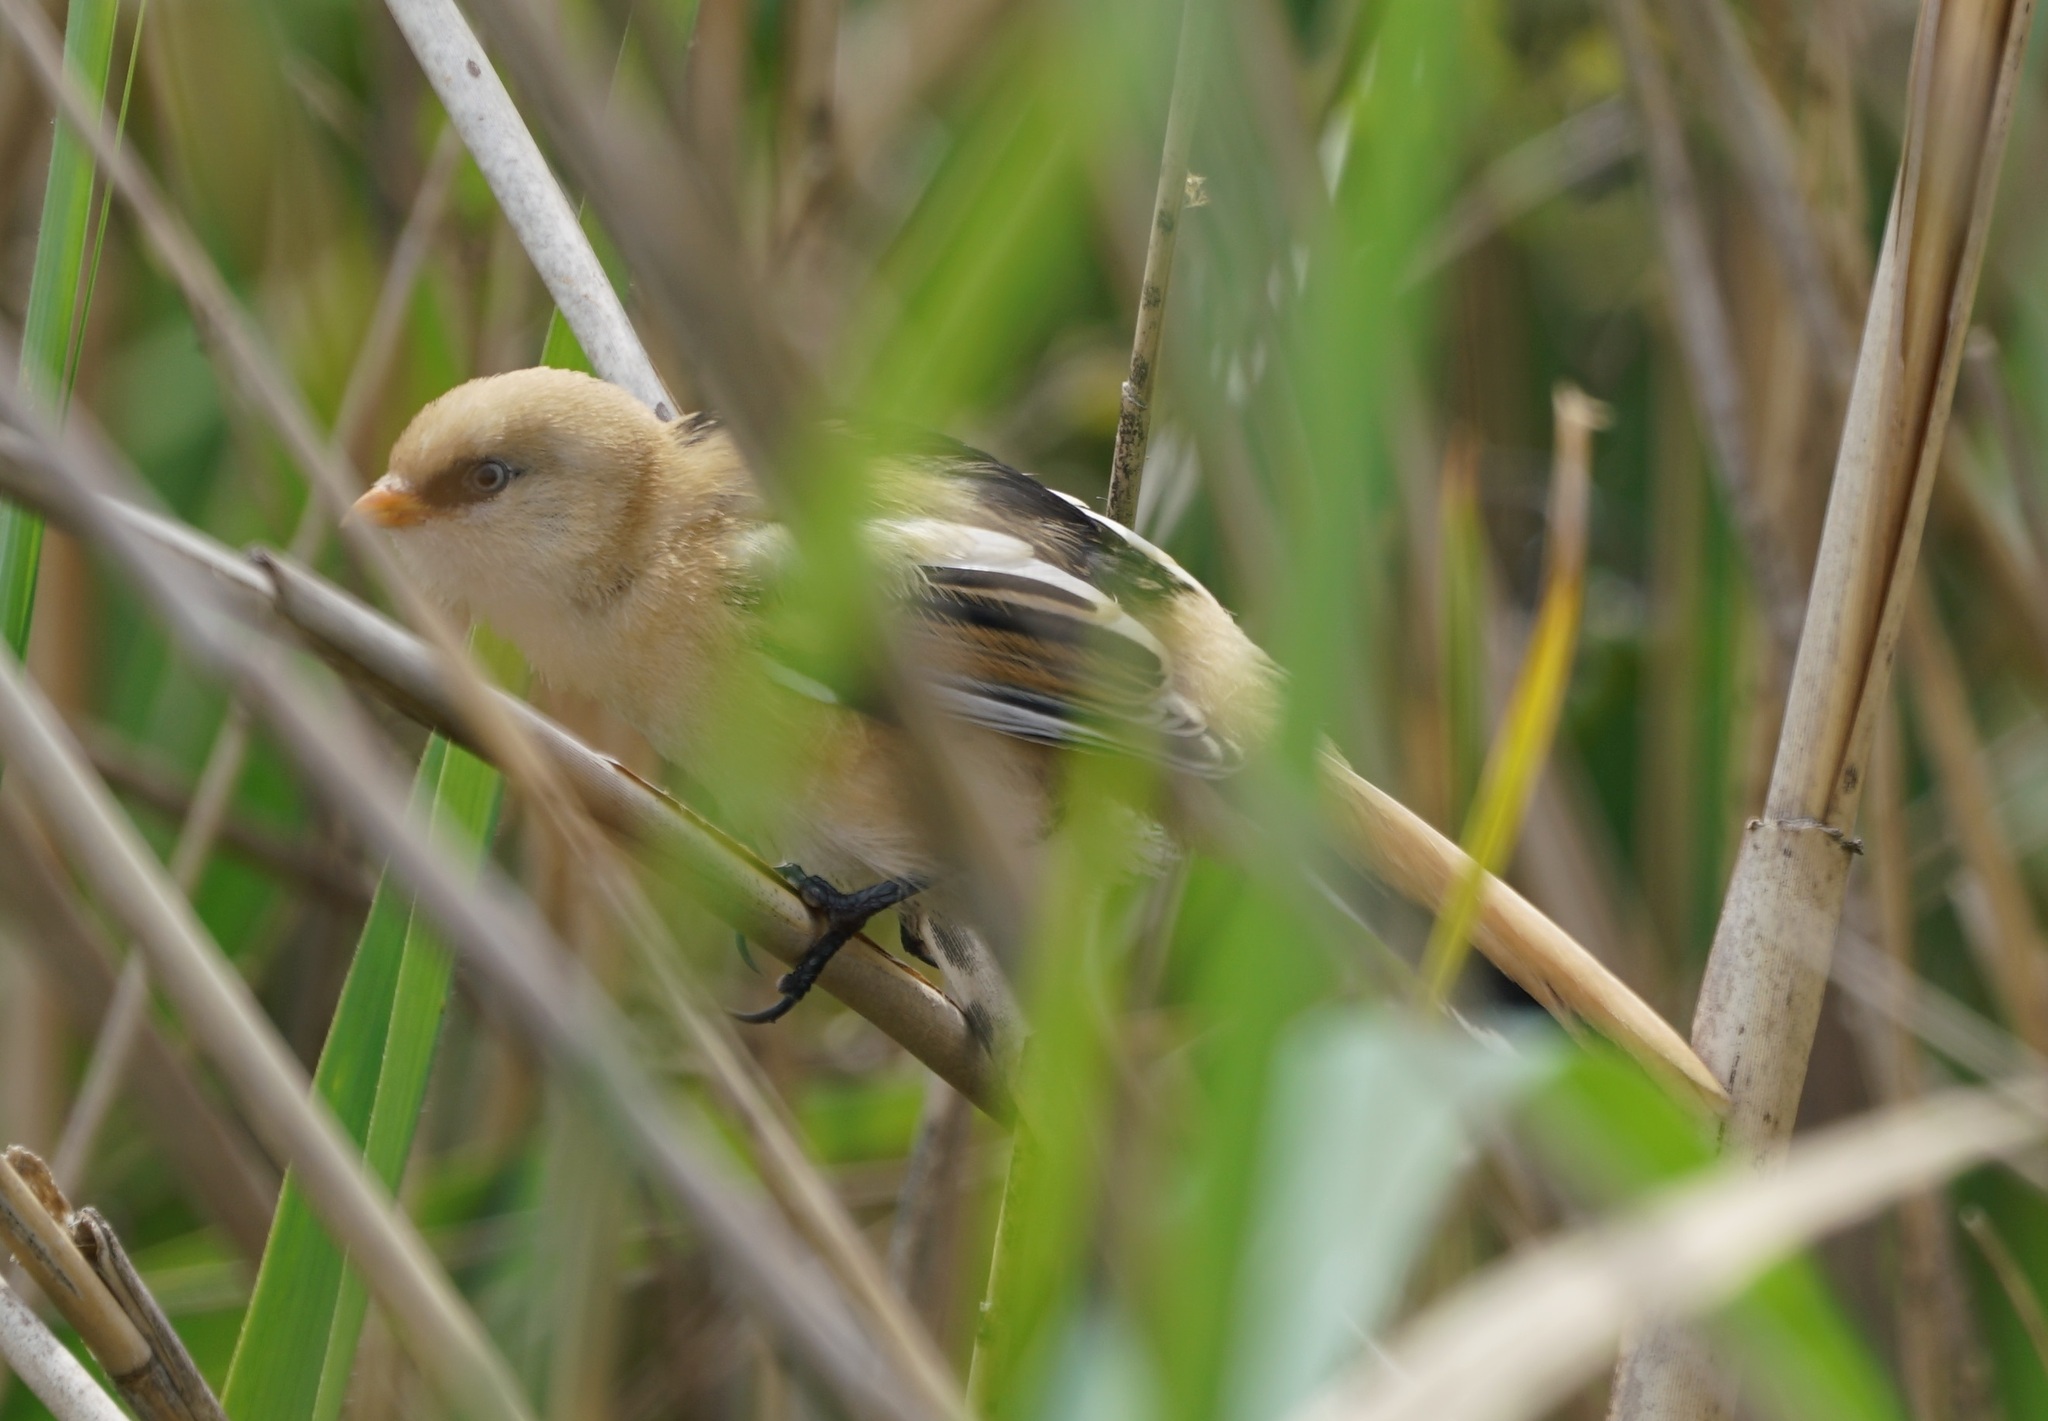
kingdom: Animalia
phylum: Chordata
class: Aves
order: Passeriformes
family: Panuridae
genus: Panurus
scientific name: Panurus biarmicus
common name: Bearded reedling
